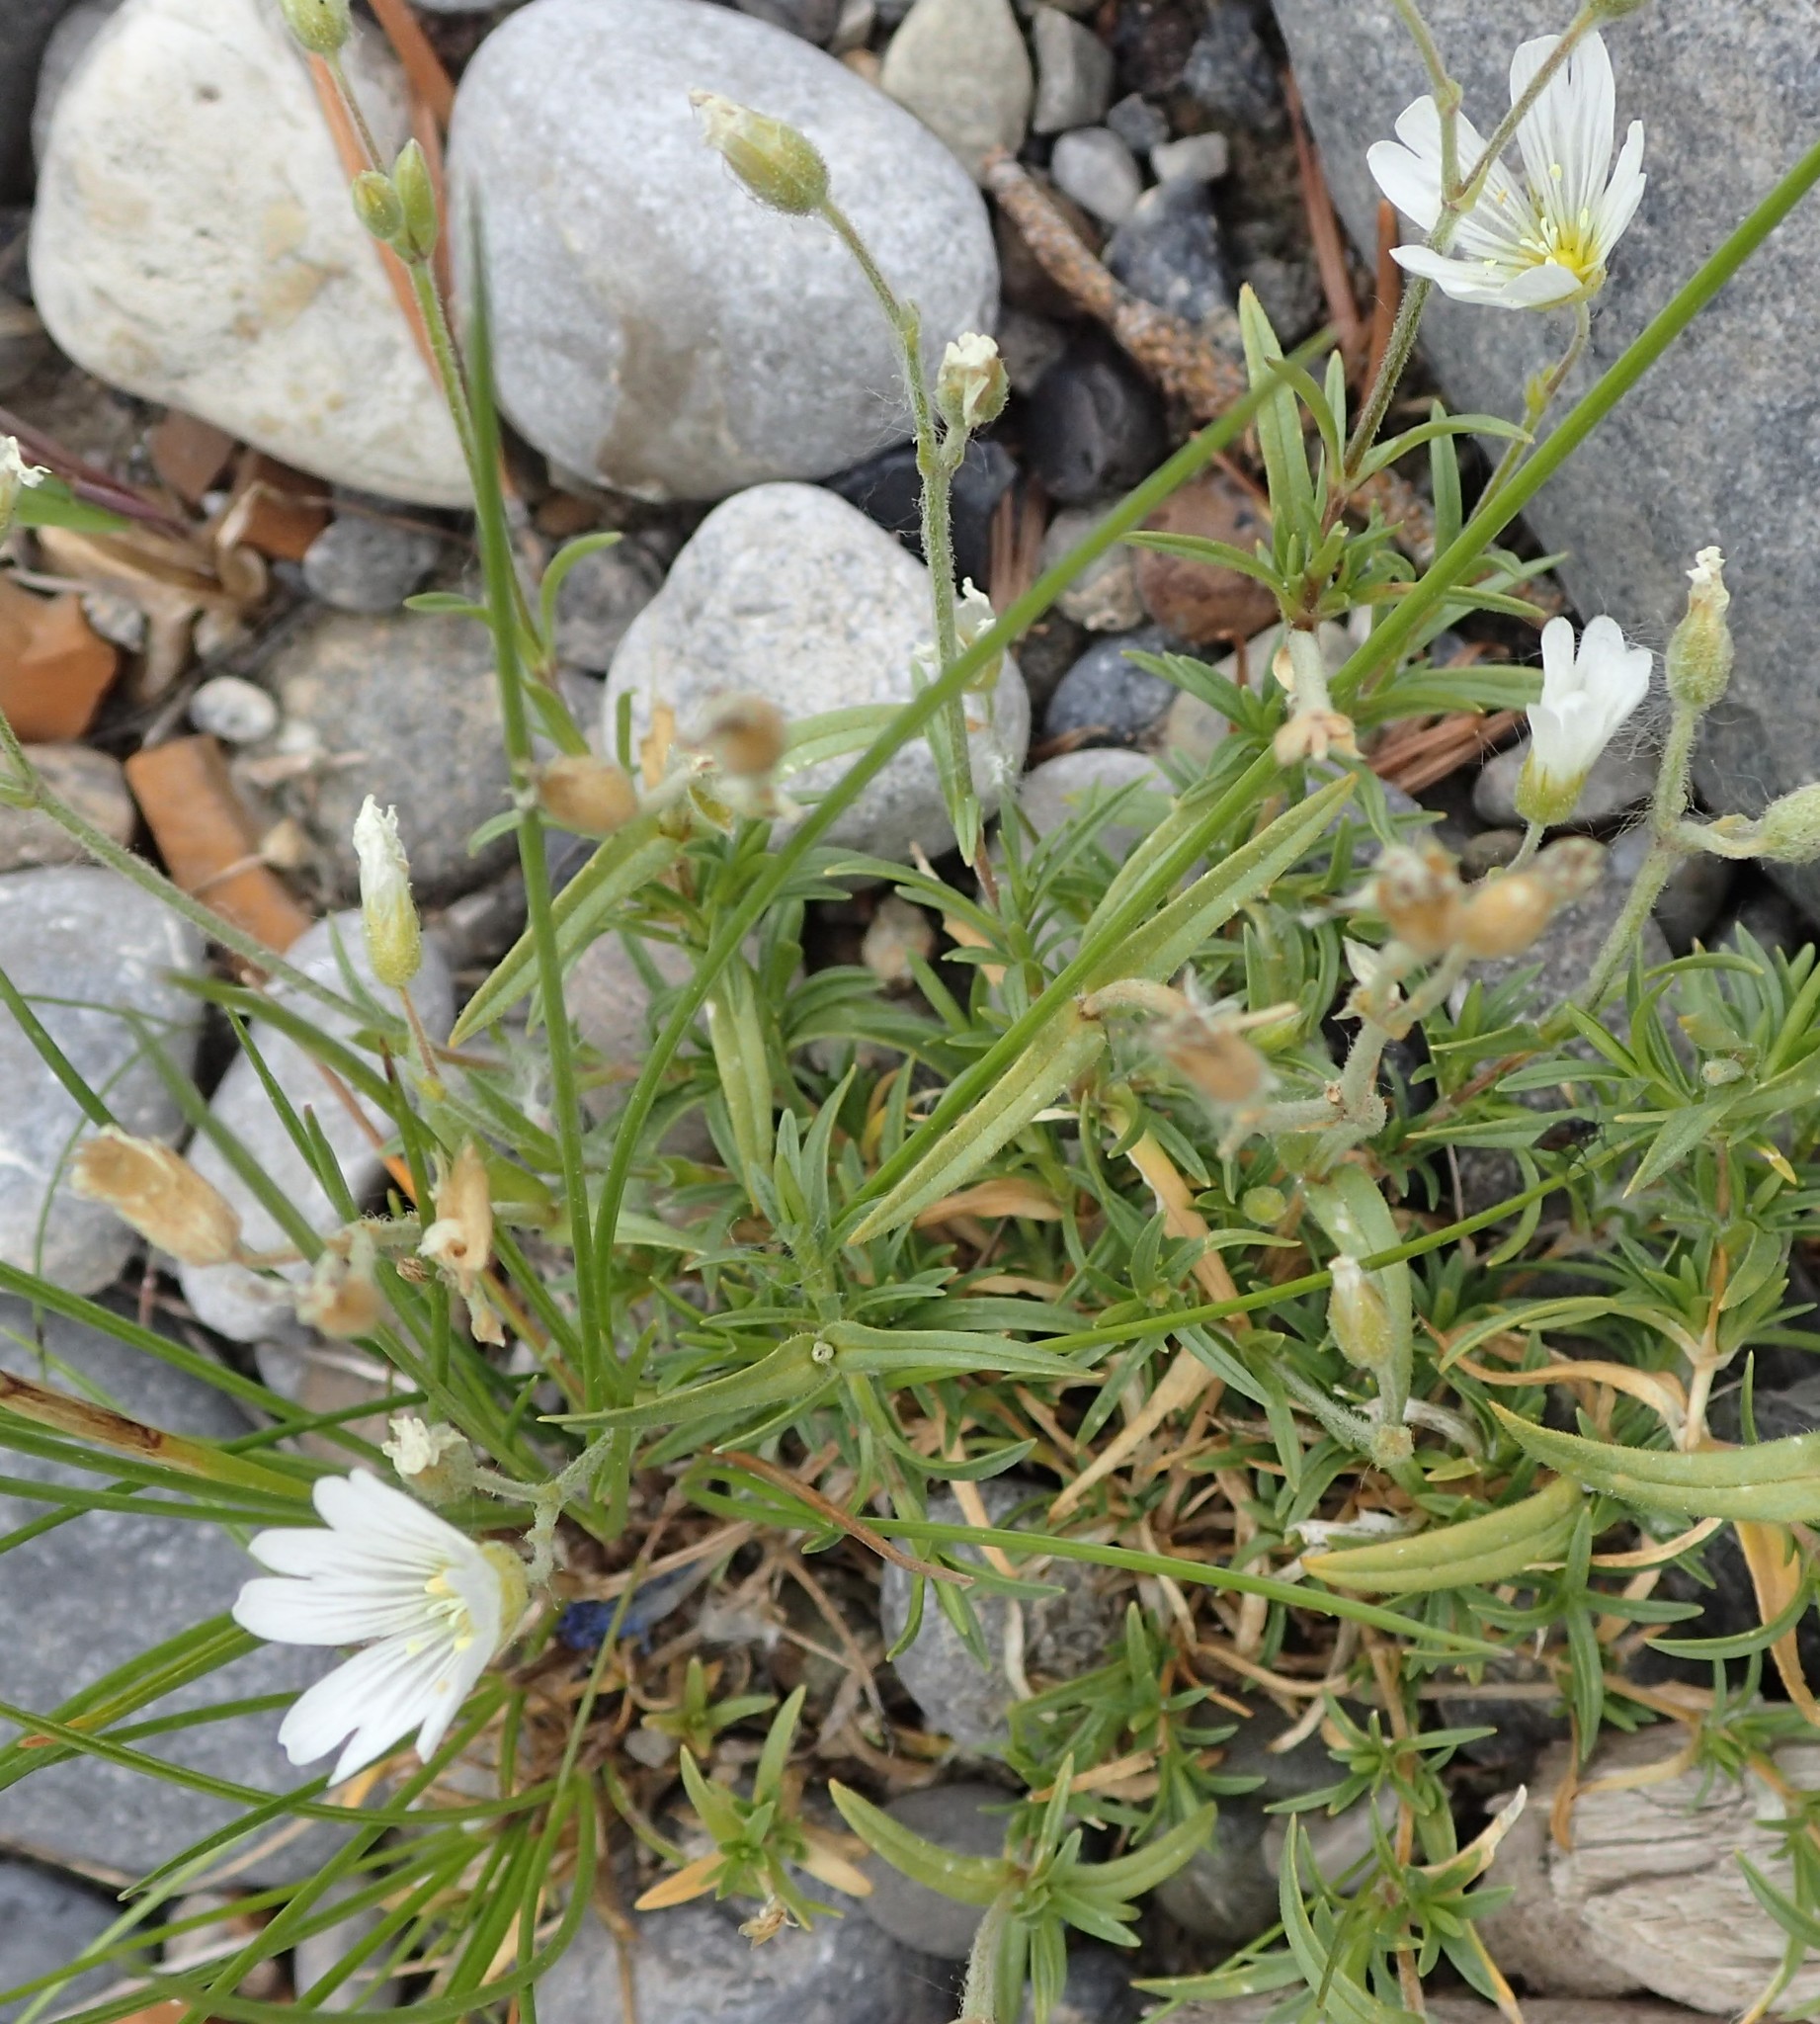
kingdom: Plantae
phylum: Tracheophyta
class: Magnoliopsida
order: Caryophyllales
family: Caryophyllaceae
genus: Cerastium
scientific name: Cerastium arvense
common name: Field mouse-ear
